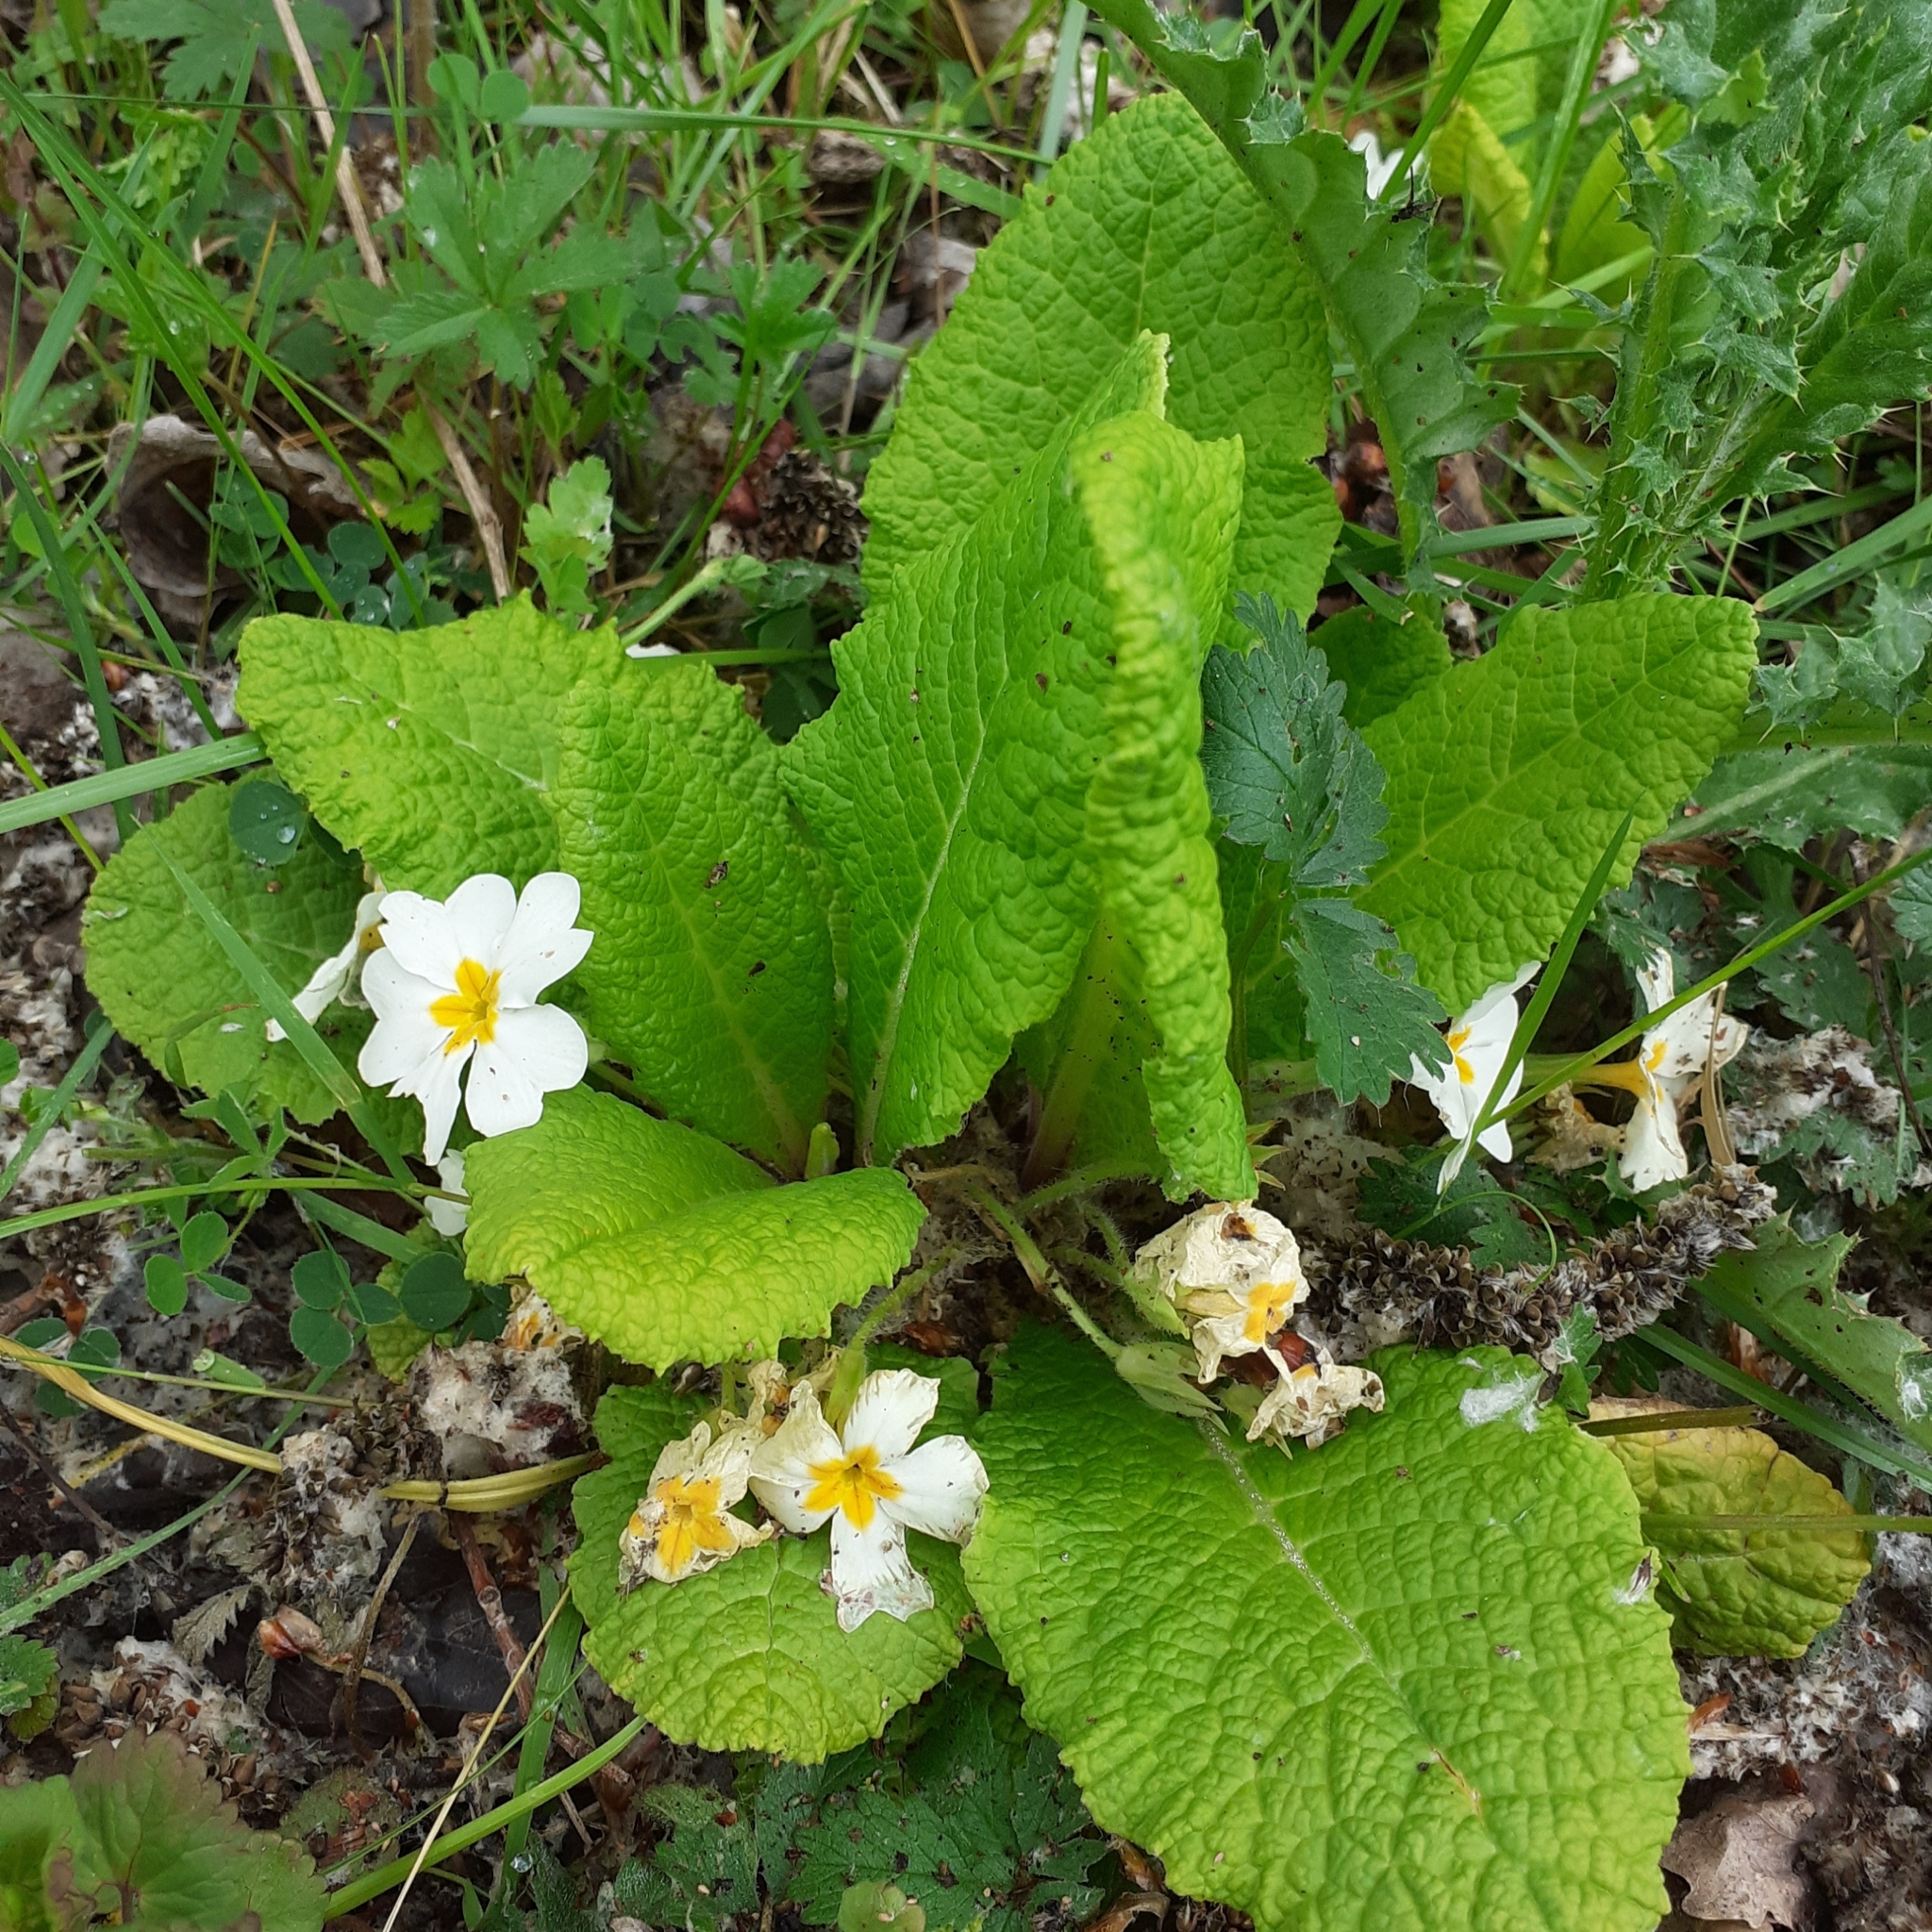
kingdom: Plantae
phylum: Tracheophyta
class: Magnoliopsida
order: Ericales
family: Primulaceae
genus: Primula
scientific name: Primula vulgaris
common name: Primrose
